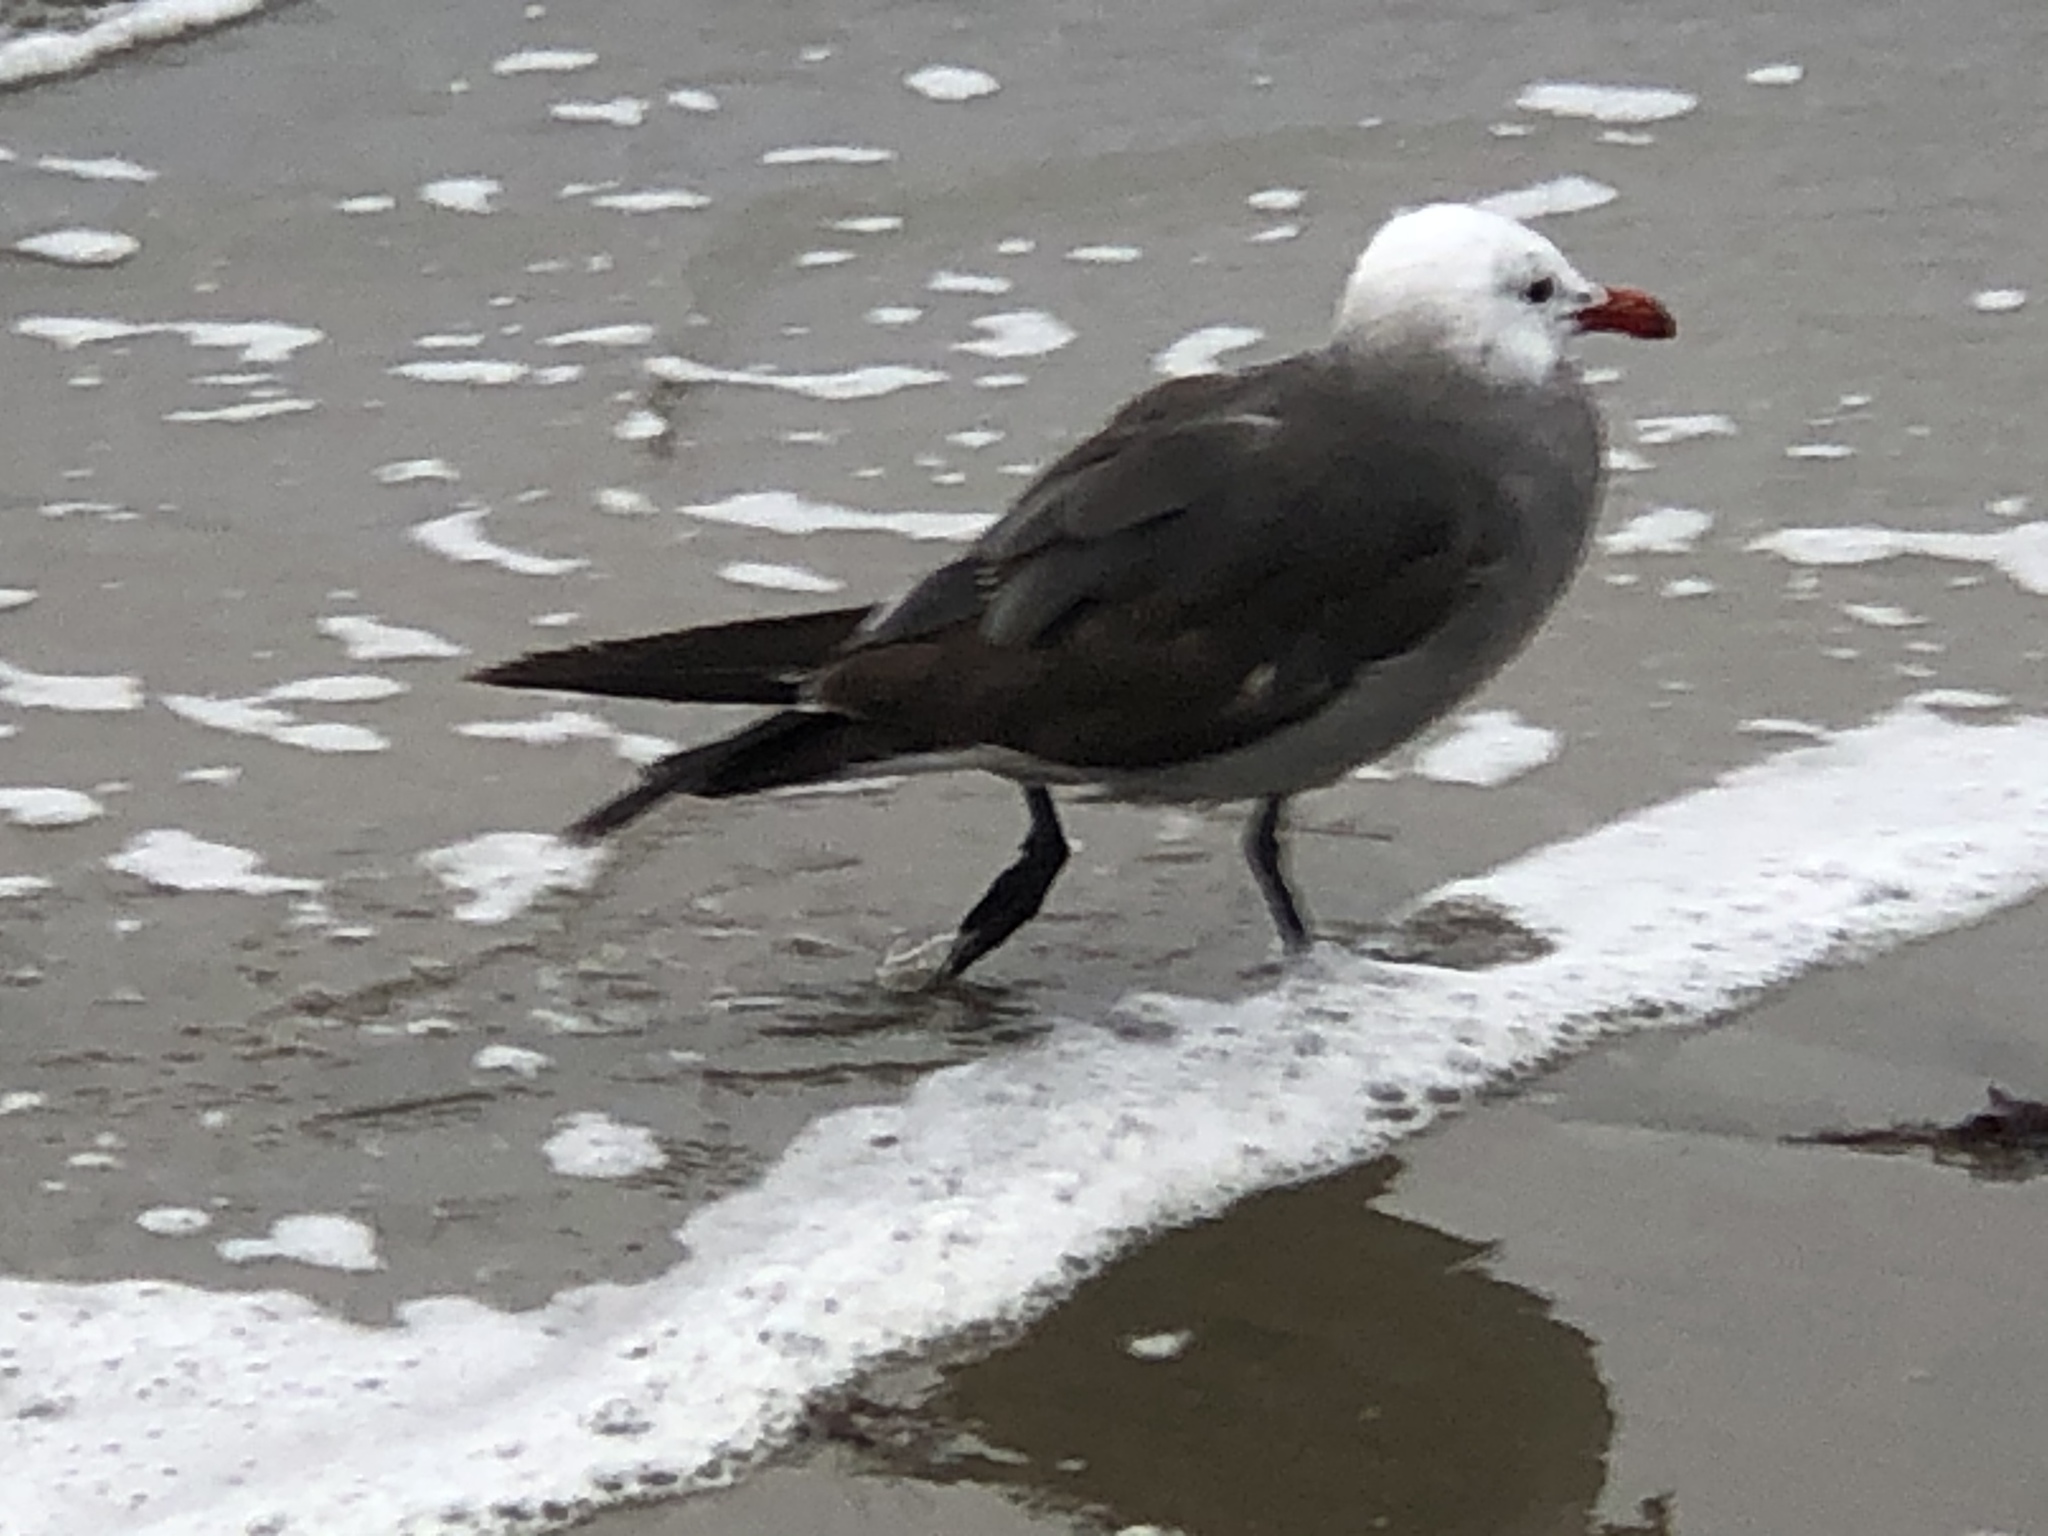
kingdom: Animalia
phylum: Chordata
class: Aves
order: Charadriiformes
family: Laridae
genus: Larus
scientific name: Larus heermanni
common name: Heermann's gull
